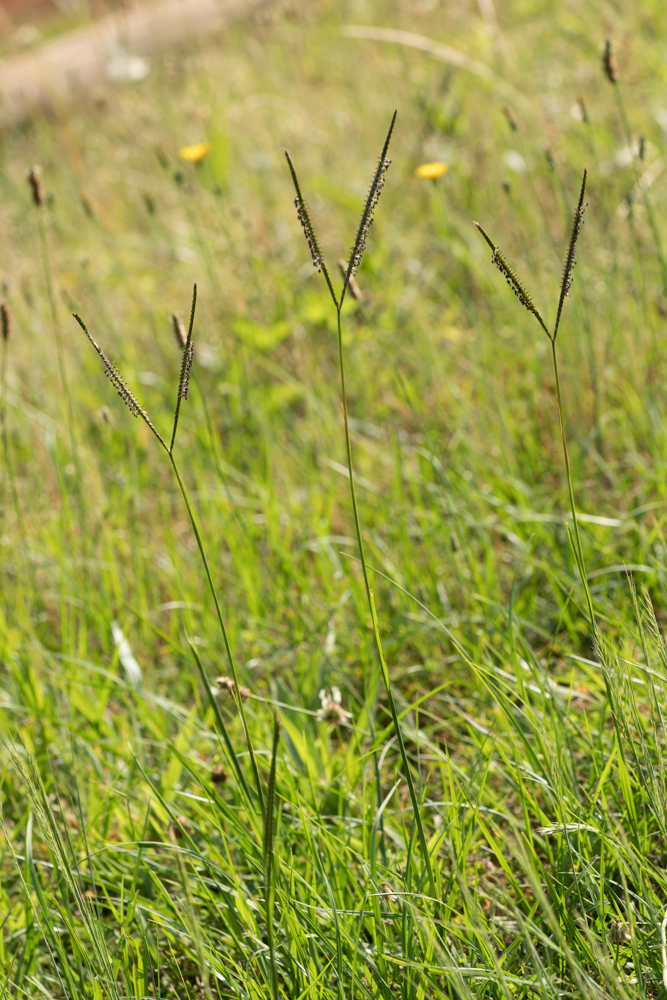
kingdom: Plantae
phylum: Tracheophyta
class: Liliopsida
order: Poales
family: Poaceae
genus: Paspalum
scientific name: Paspalum notatum
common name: Bahiagrass
